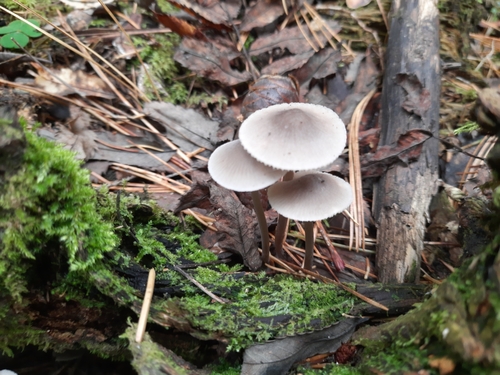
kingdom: Fungi
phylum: Basidiomycota
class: Agaricomycetes
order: Agaricales
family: Mycenaceae
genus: Mycena
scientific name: Mycena
